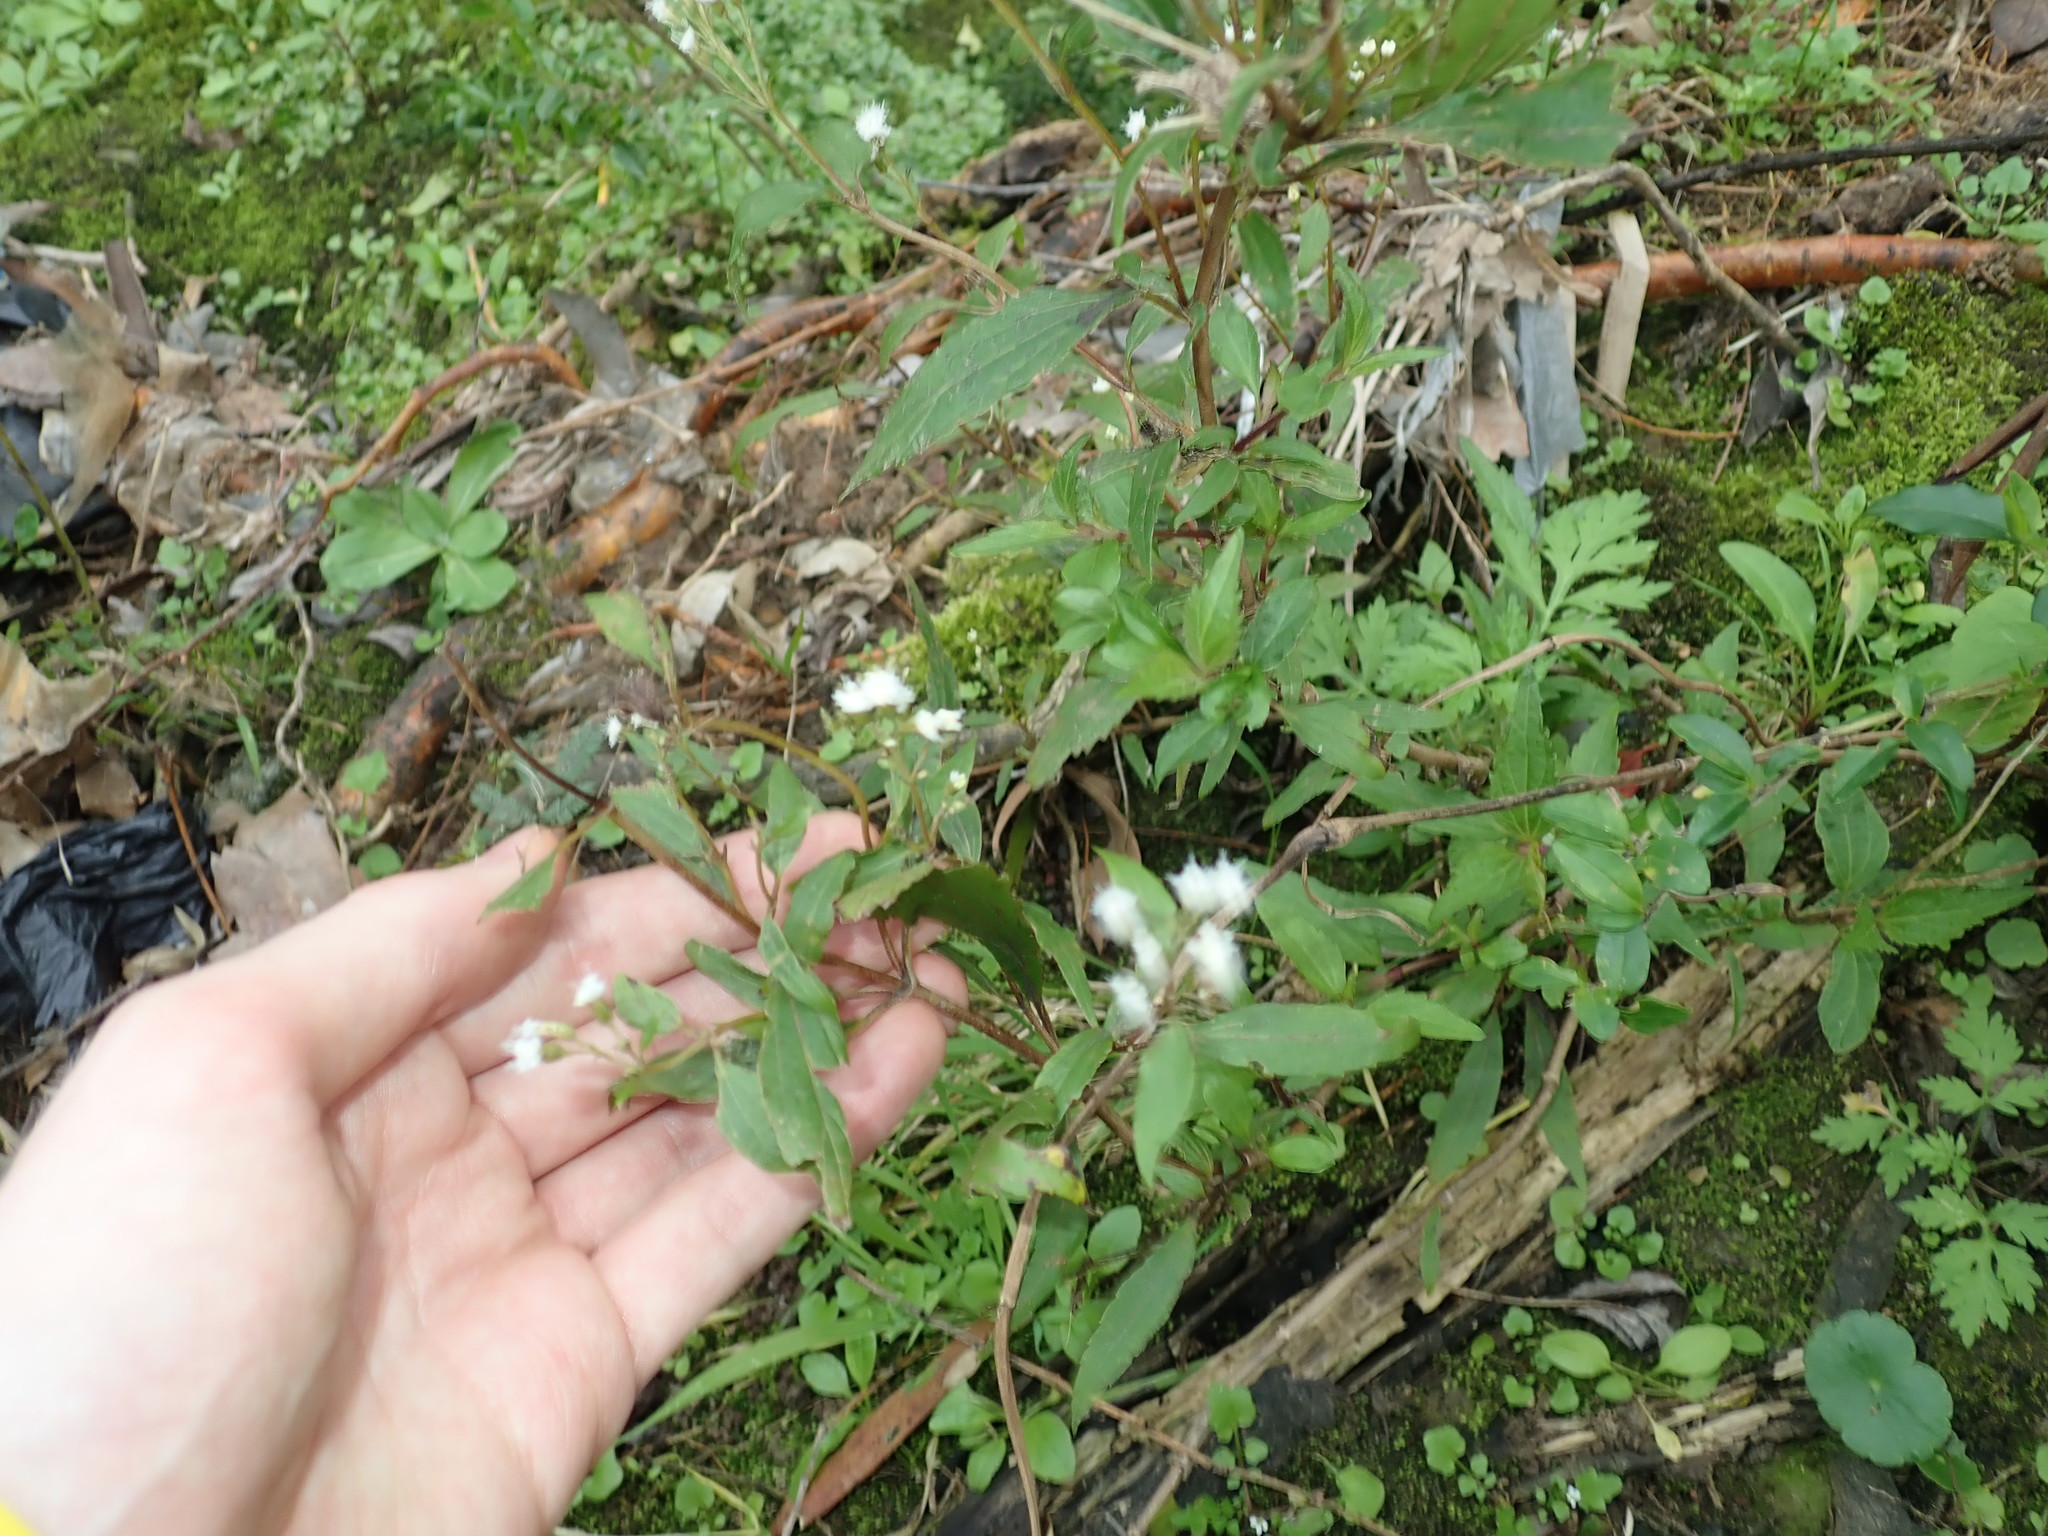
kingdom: Plantae
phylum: Tracheophyta
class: Magnoliopsida
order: Asterales
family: Asteraceae
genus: Ageratina
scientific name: Ageratina riparia
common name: Creeping croftonweed
